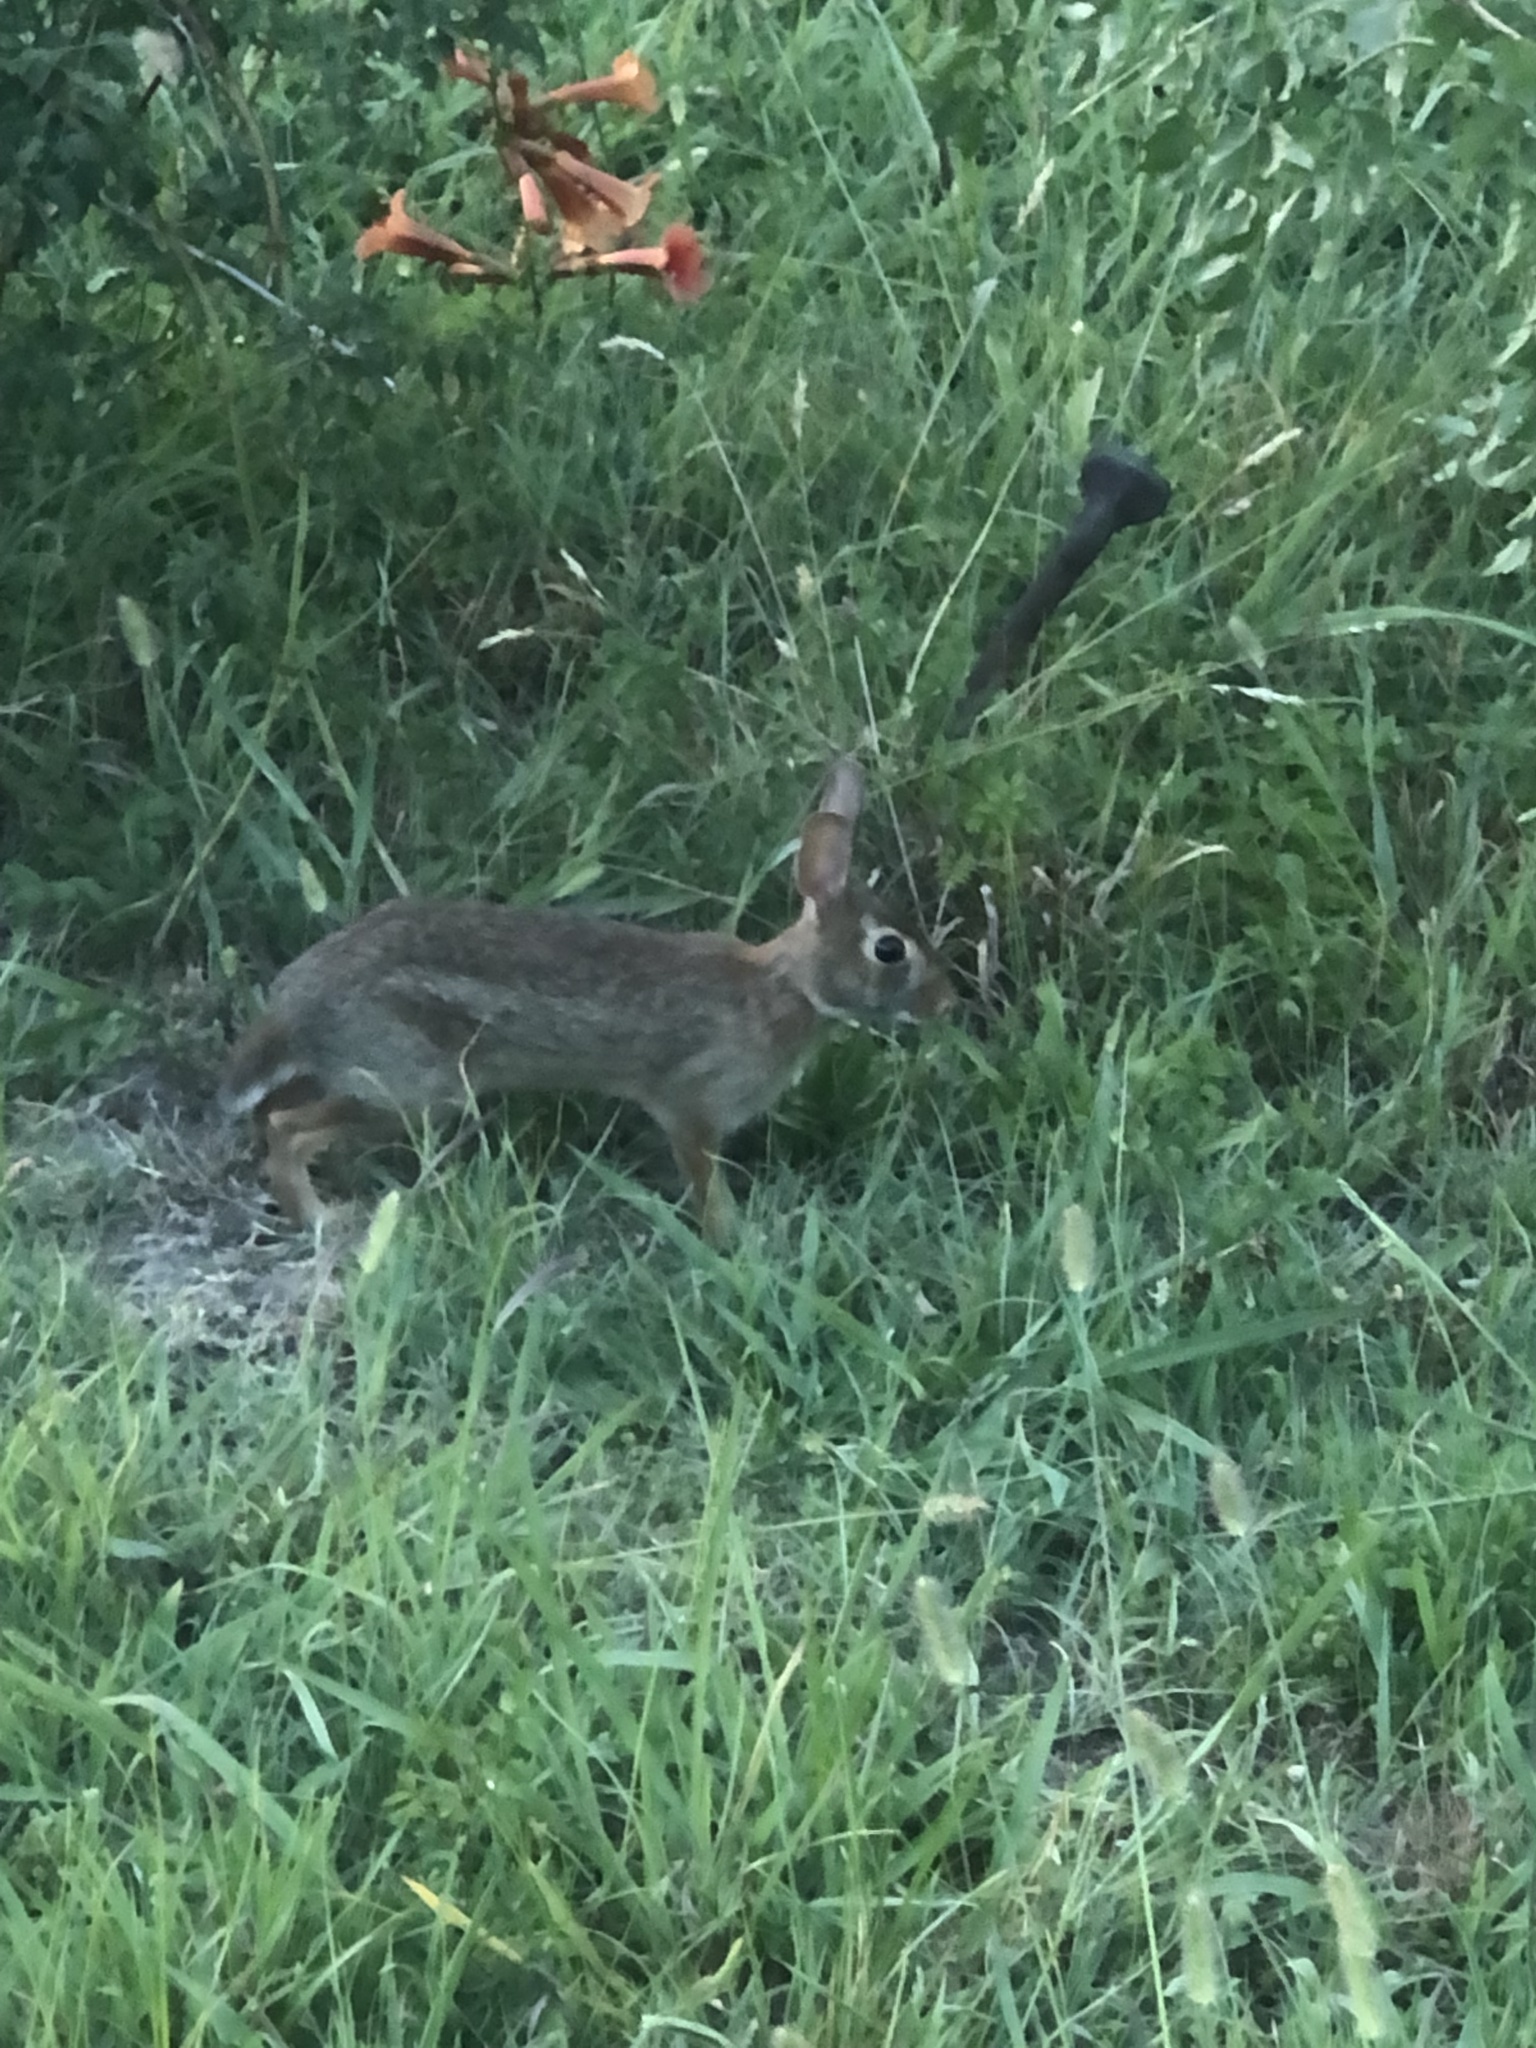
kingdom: Animalia
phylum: Chordata
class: Mammalia
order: Lagomorpha
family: Leporidae
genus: Sylvilagus
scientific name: Sylvilagus floridanus
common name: Eastern cottontail
